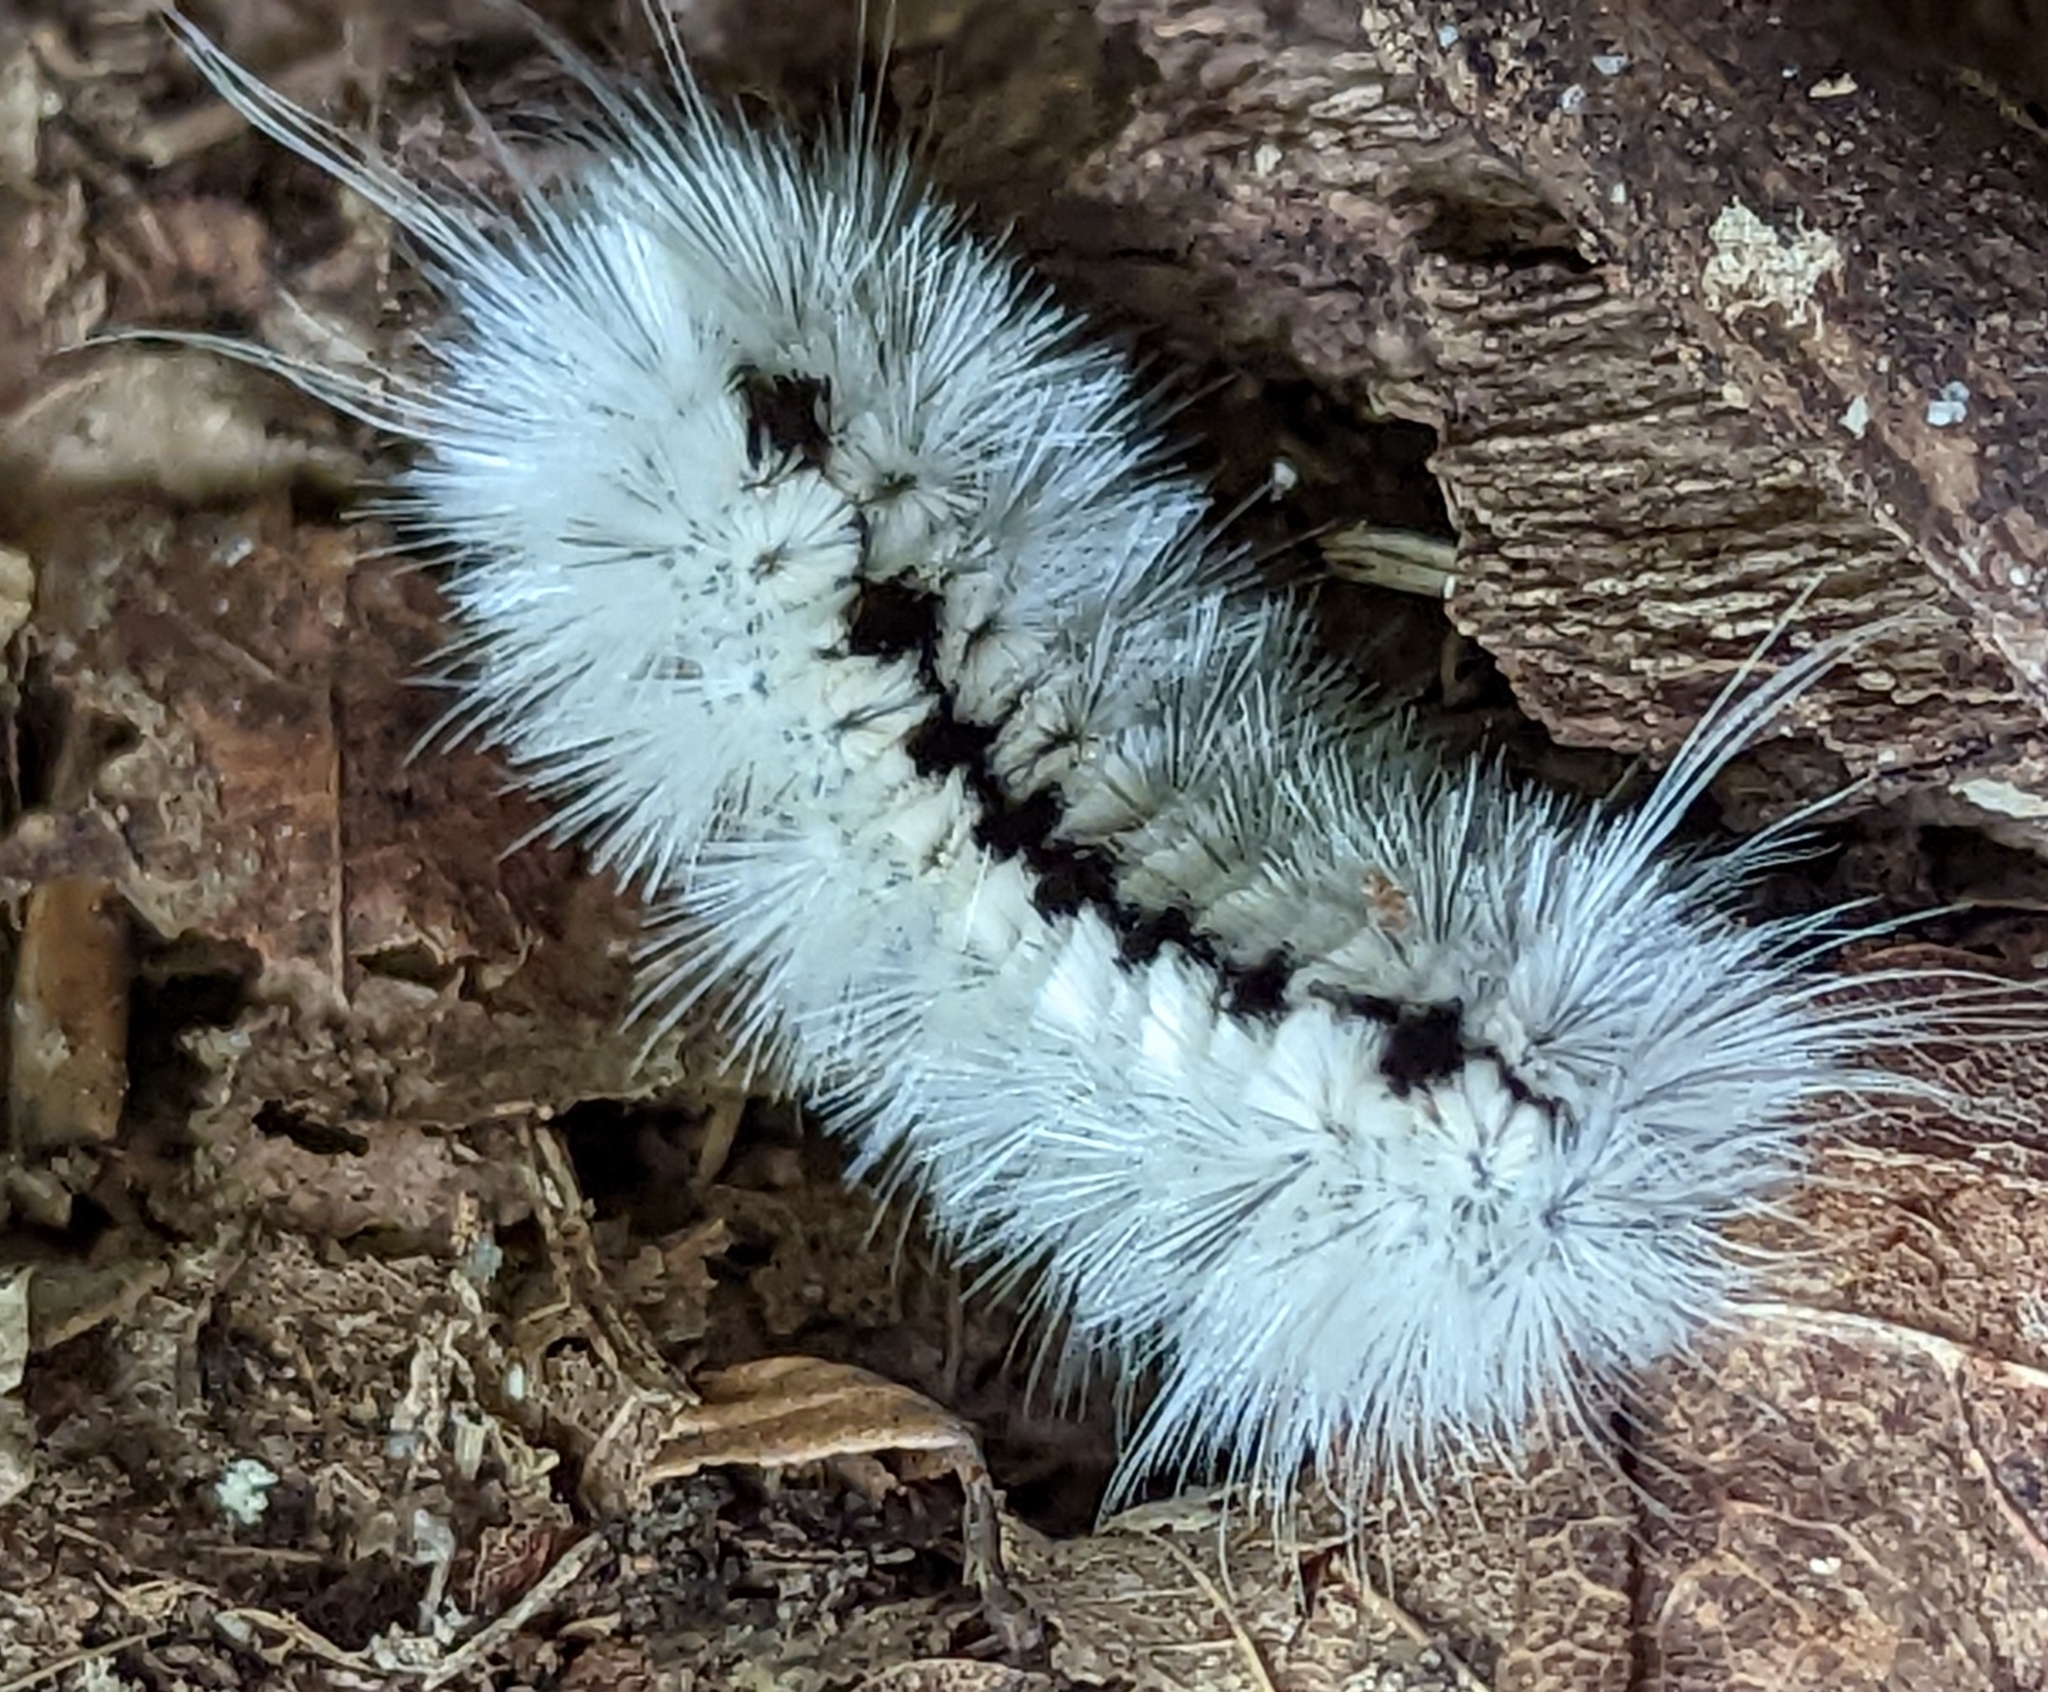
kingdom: Animalia
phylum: Arthropoda
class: Insecta
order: Lepidoptera
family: Erebidae
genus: Lophocampa
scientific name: Lophocampa caryae
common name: Hickory tussock moth
